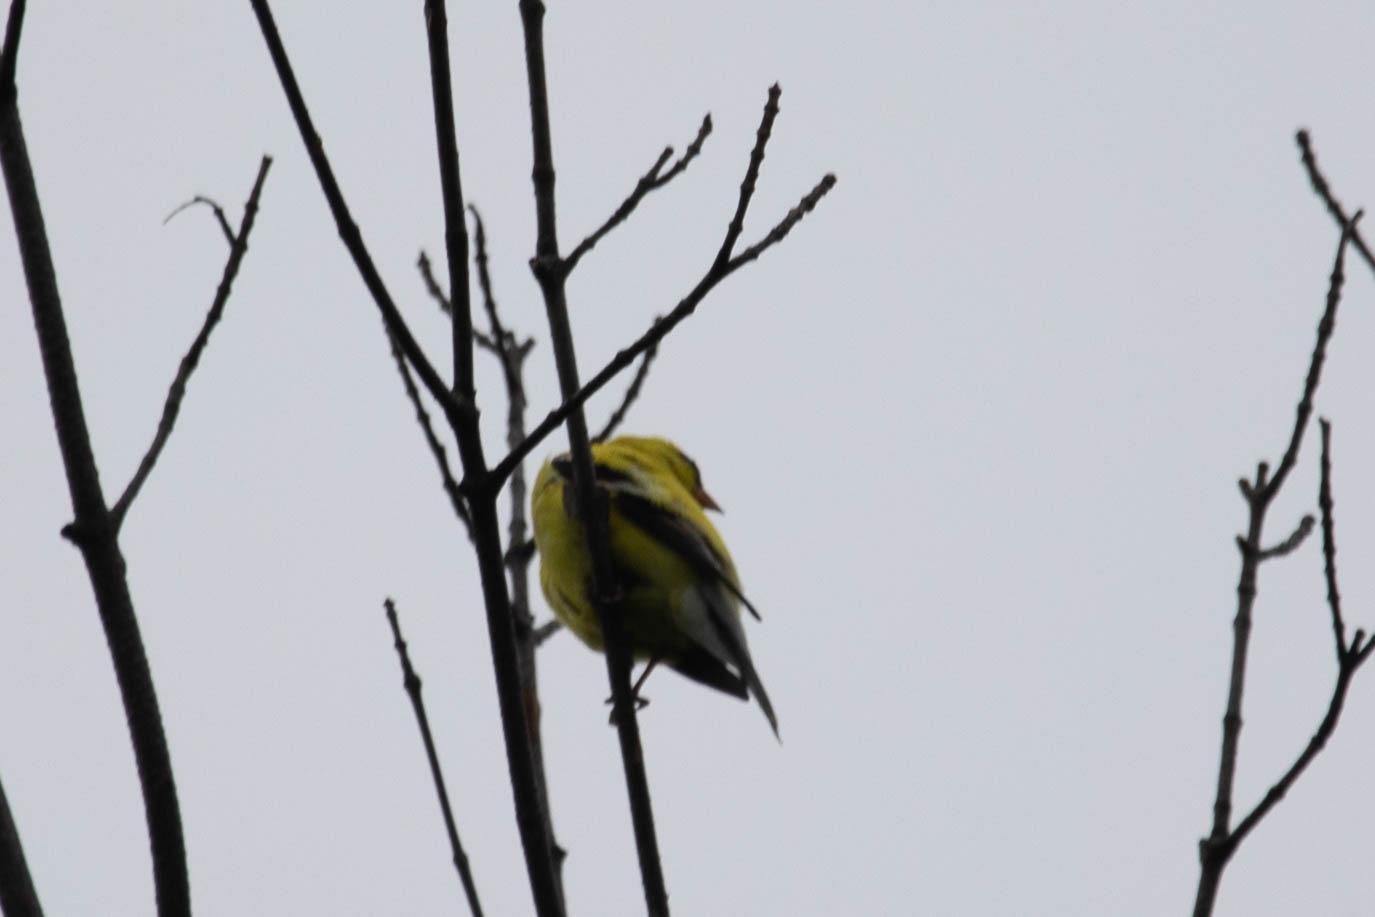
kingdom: Animalia
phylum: Chordata
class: Aves
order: Passeriformes
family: Fringillidae
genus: Spinus
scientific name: Spinus tristis
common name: American goldfinch
